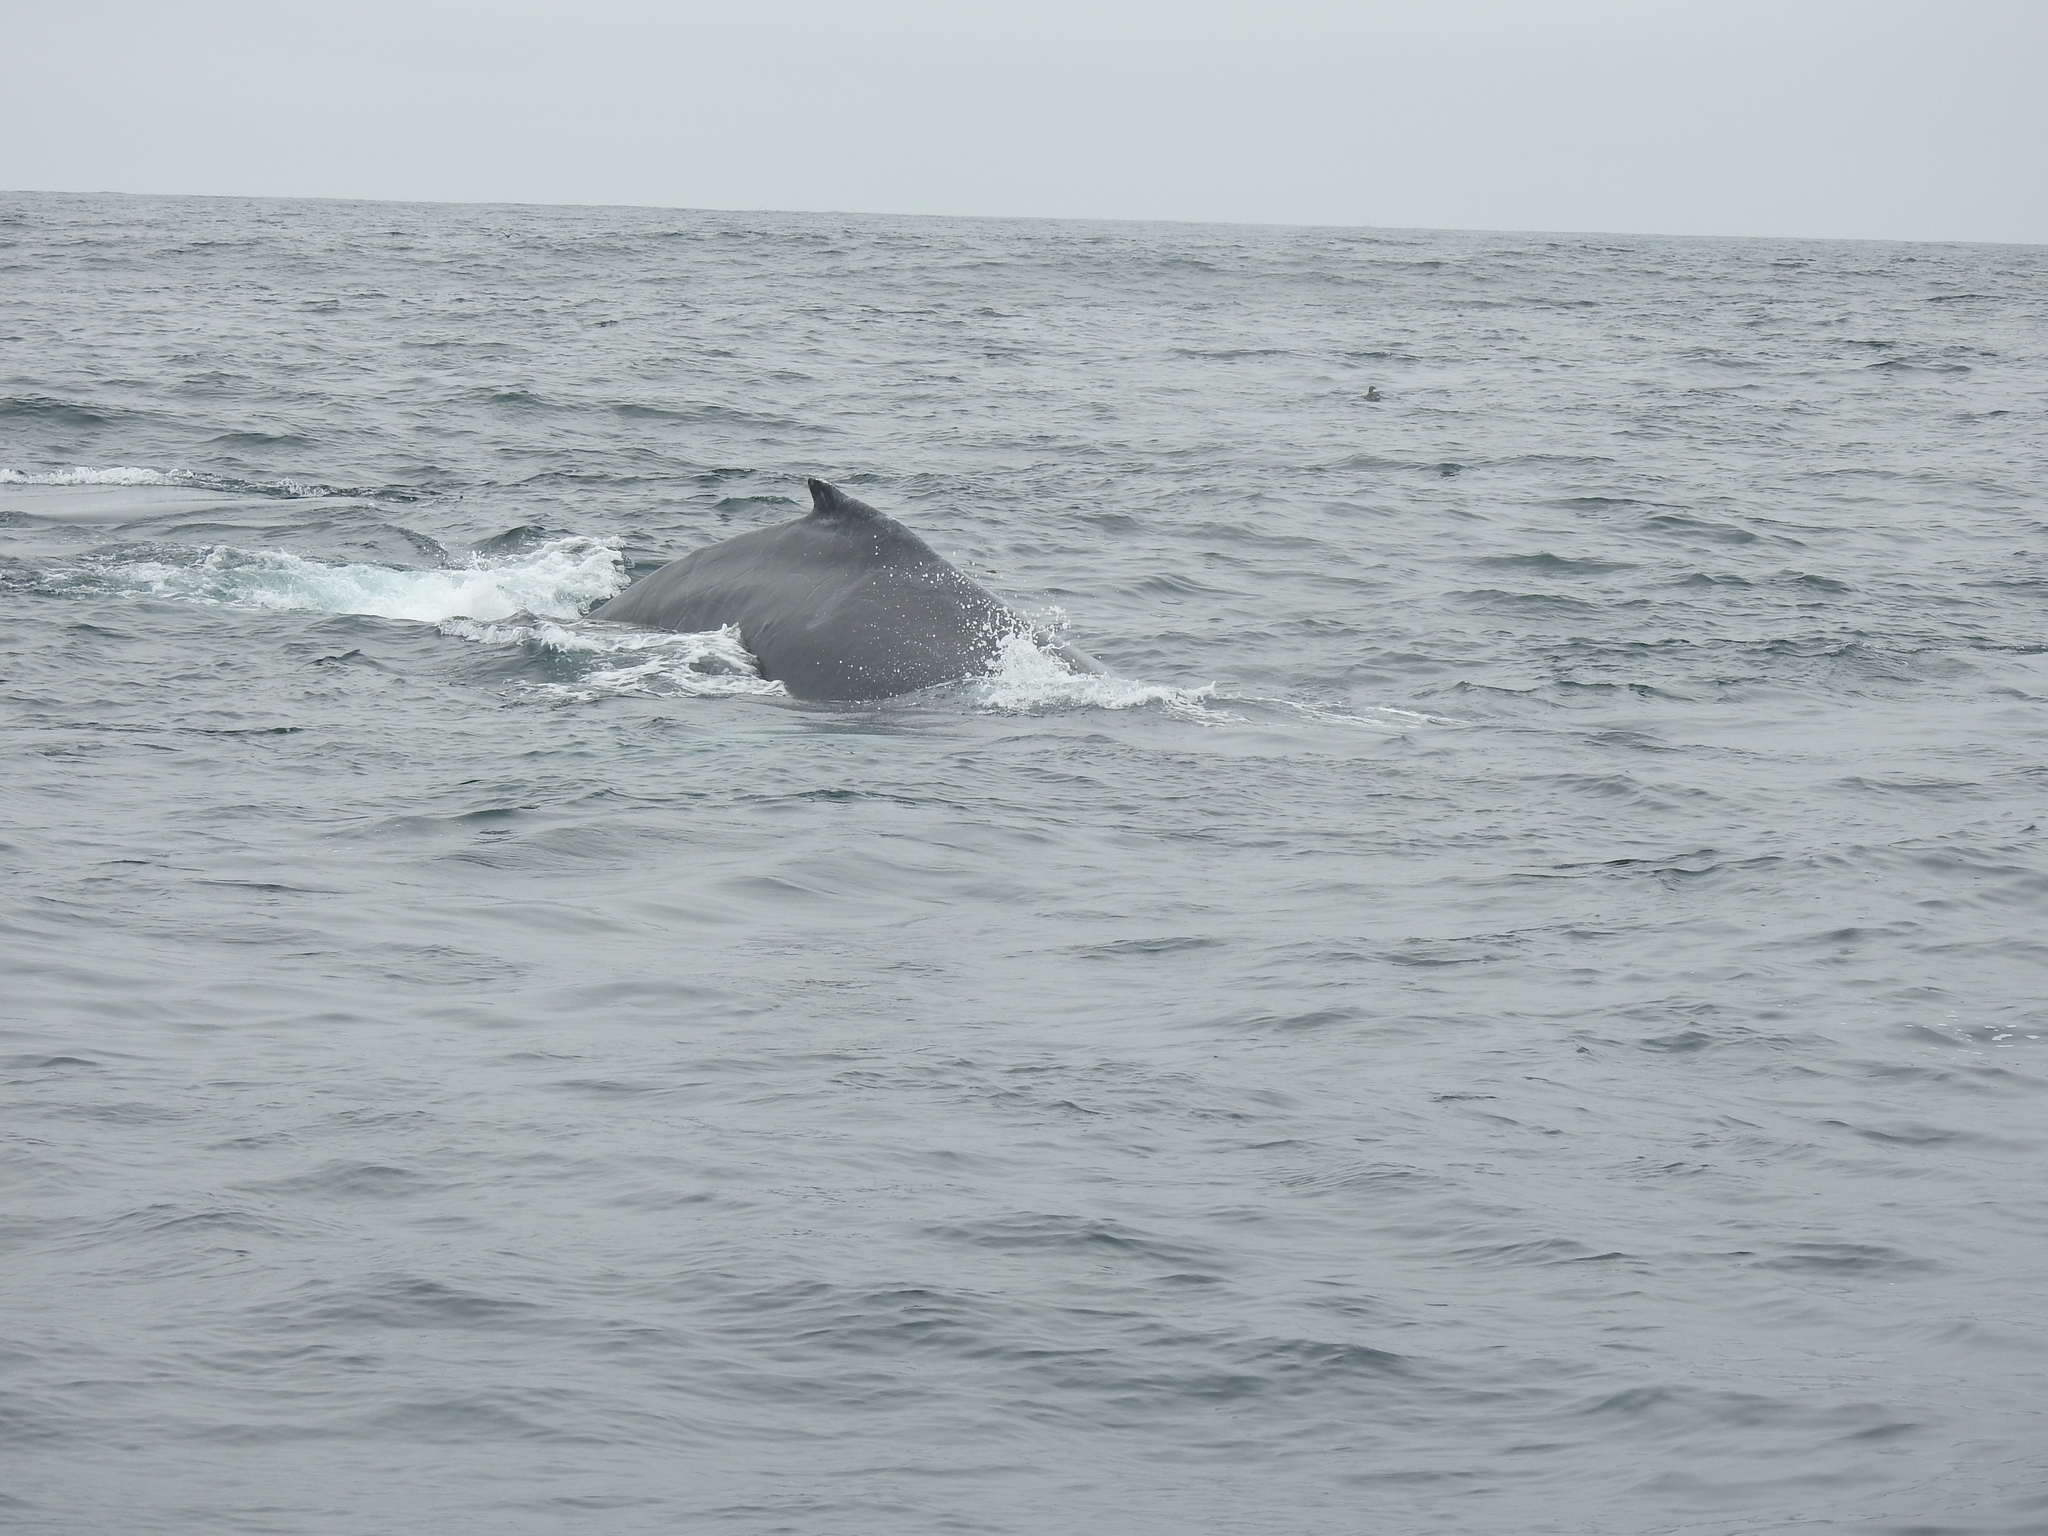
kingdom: Animalia
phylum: Chordata
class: Mammalia
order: Cetacea
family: Balaenopteridae
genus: Megaptera
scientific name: Megaptera novaeangliae
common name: Humpback whale
